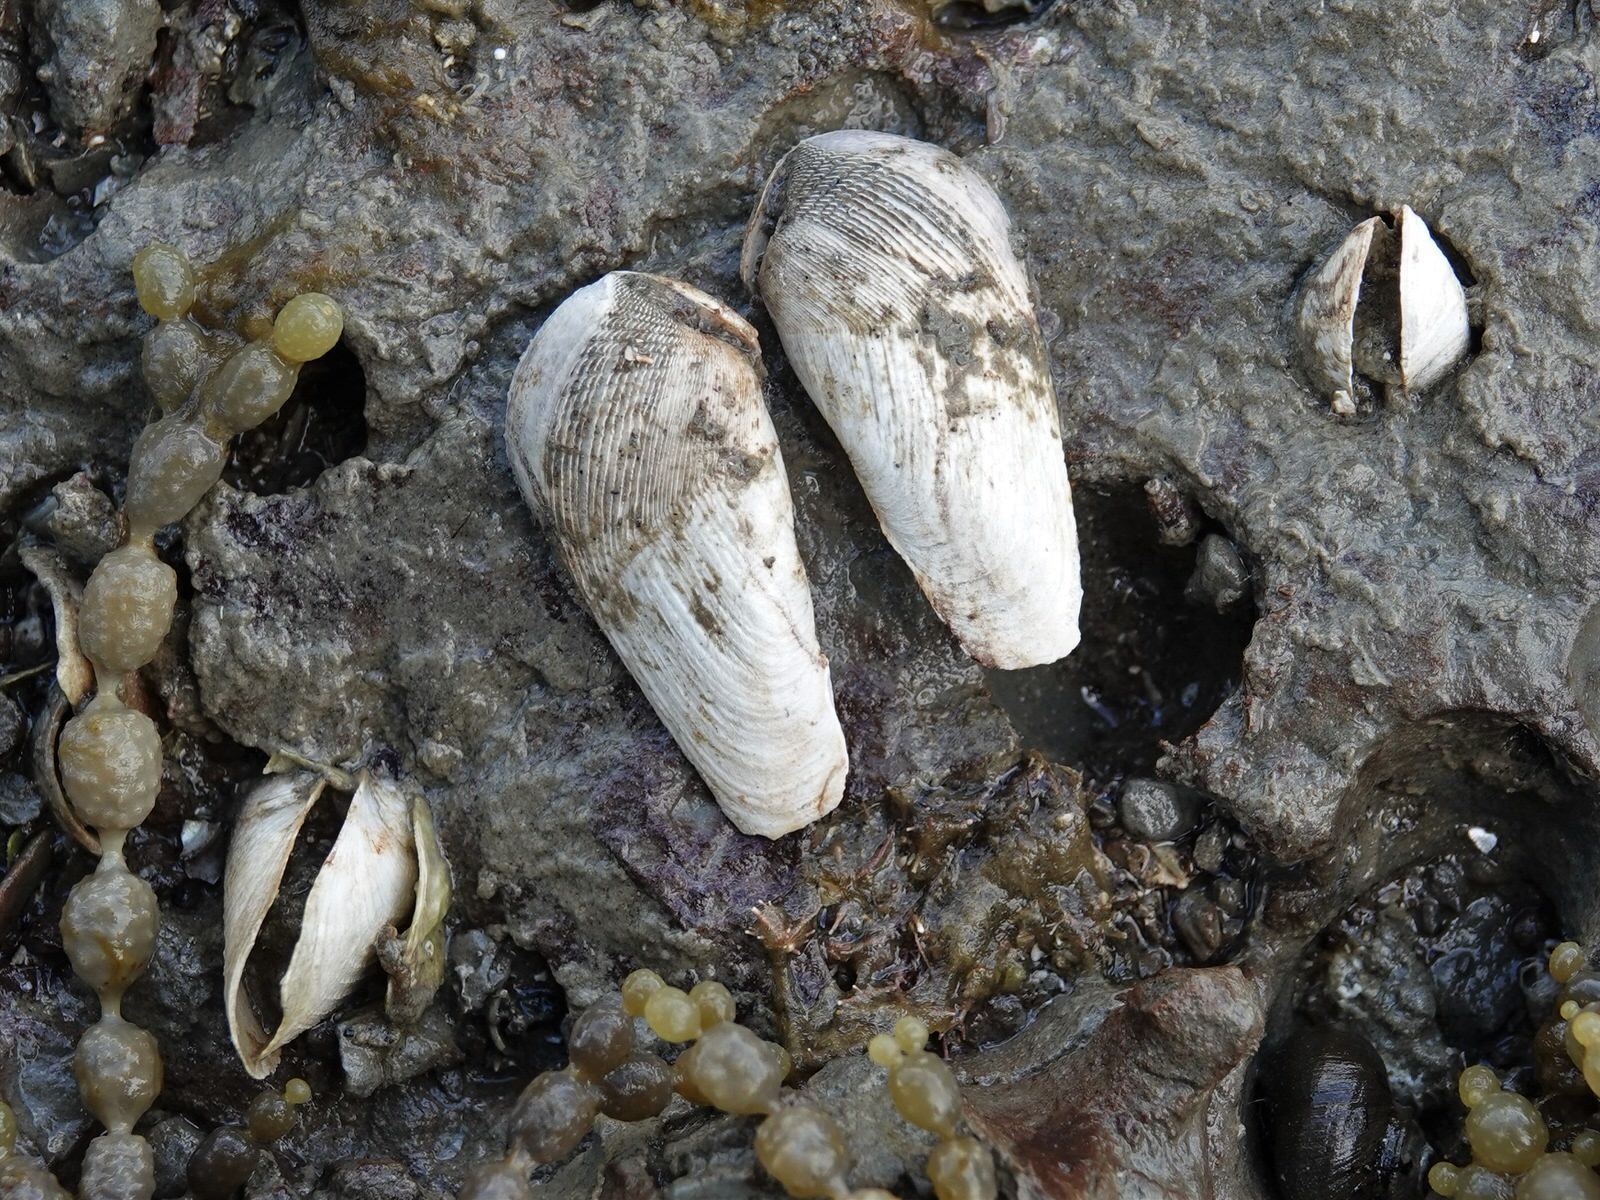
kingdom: Animalia
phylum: Mollusca
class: Bivalvia
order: Myida
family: Pholadidae
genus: Pholadidea
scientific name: Pholadidea suteri
